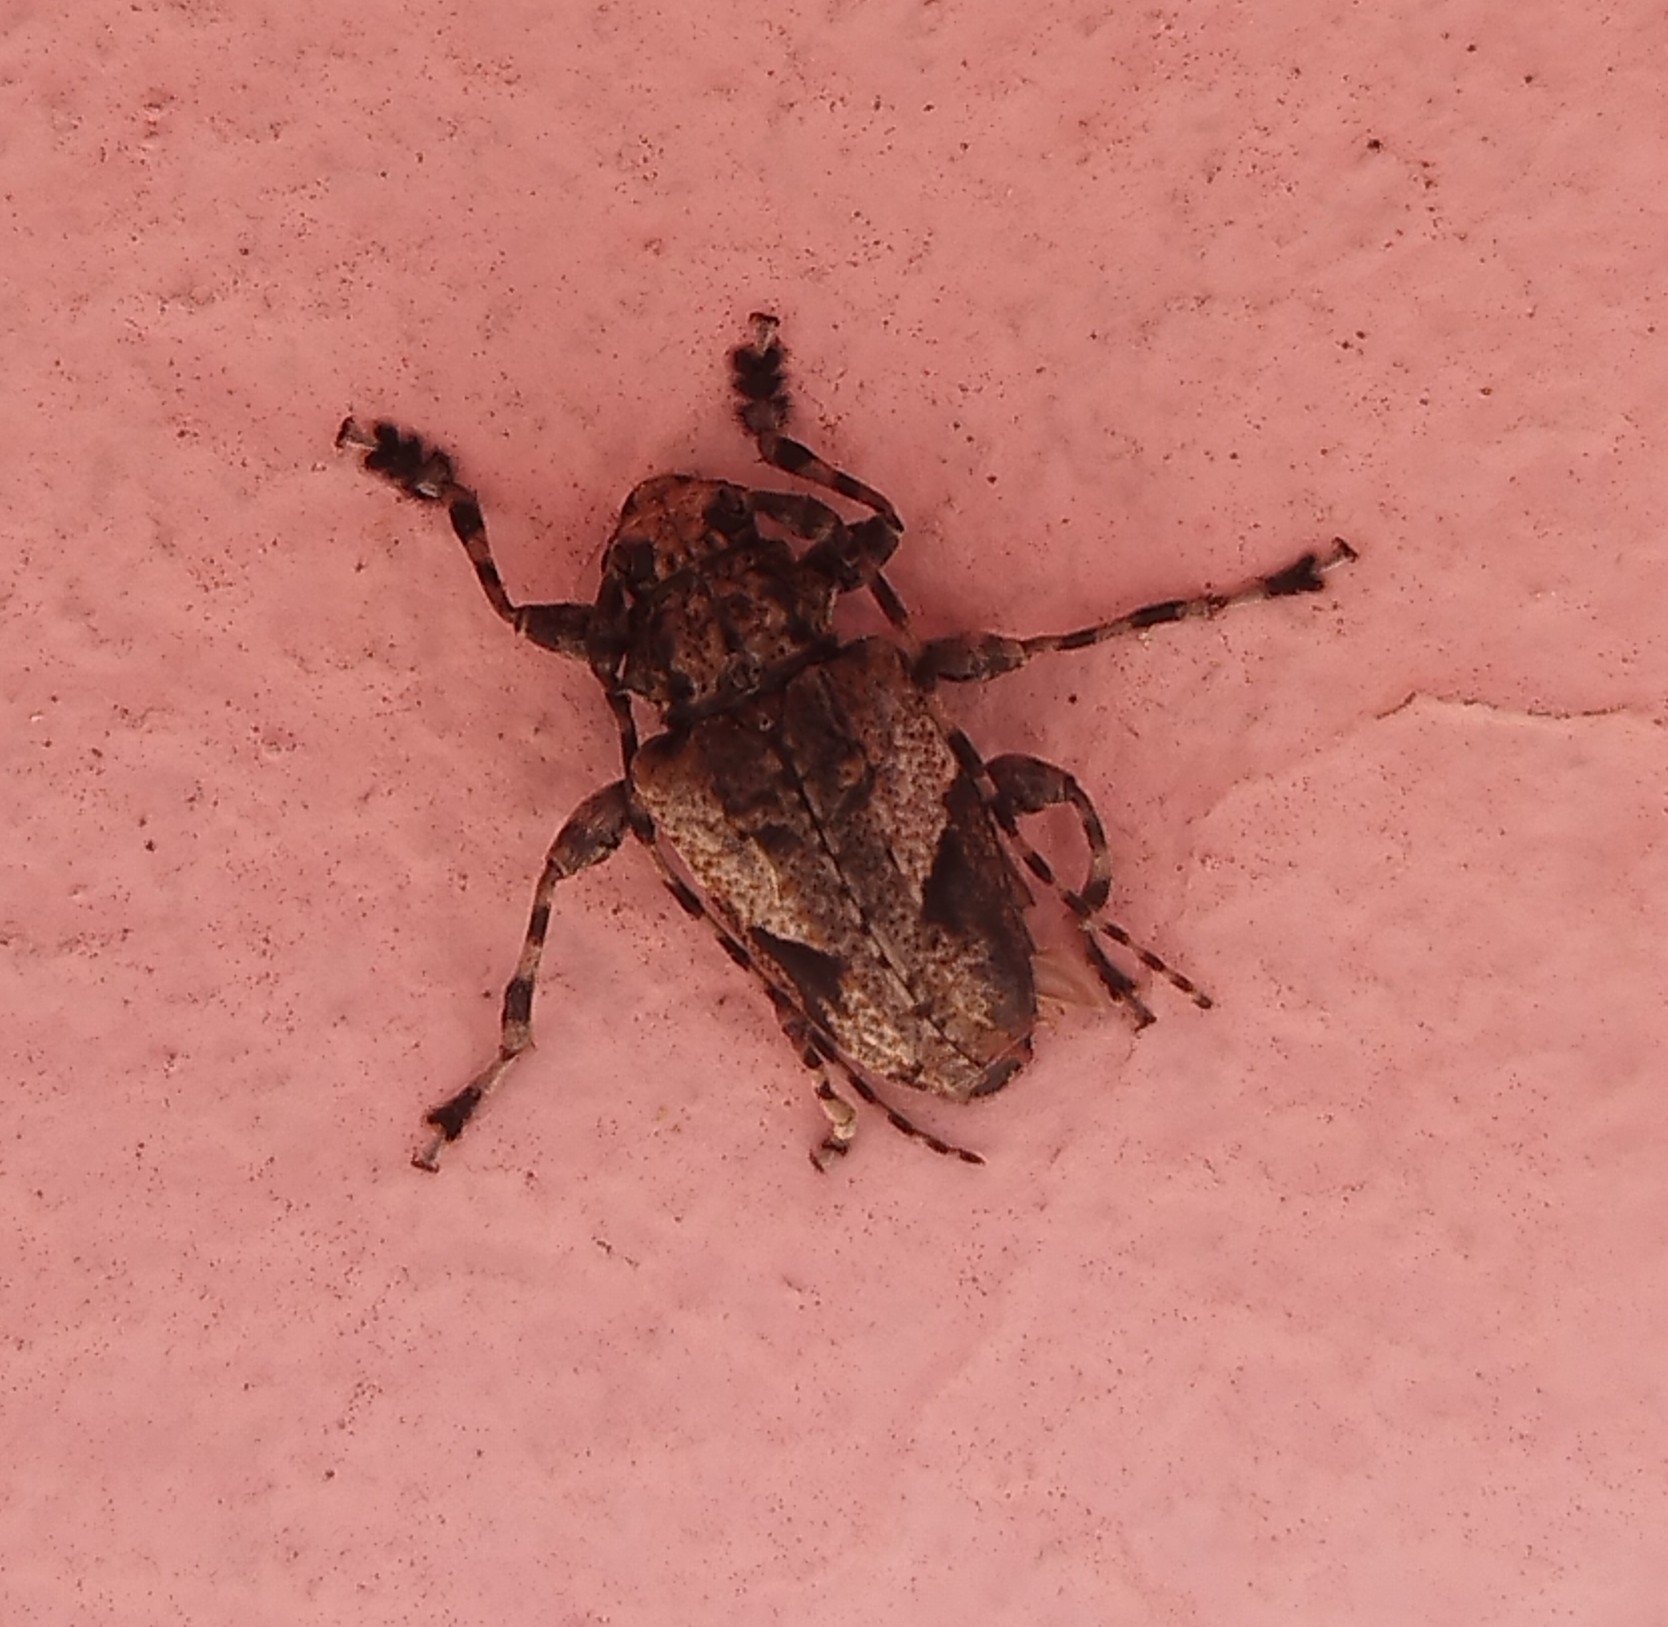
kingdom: Animalia
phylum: Arthropoda
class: Insecta
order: Coleoptera
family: Cerambycidae
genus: Psapharochrus
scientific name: Psapharochrus jaspideus
